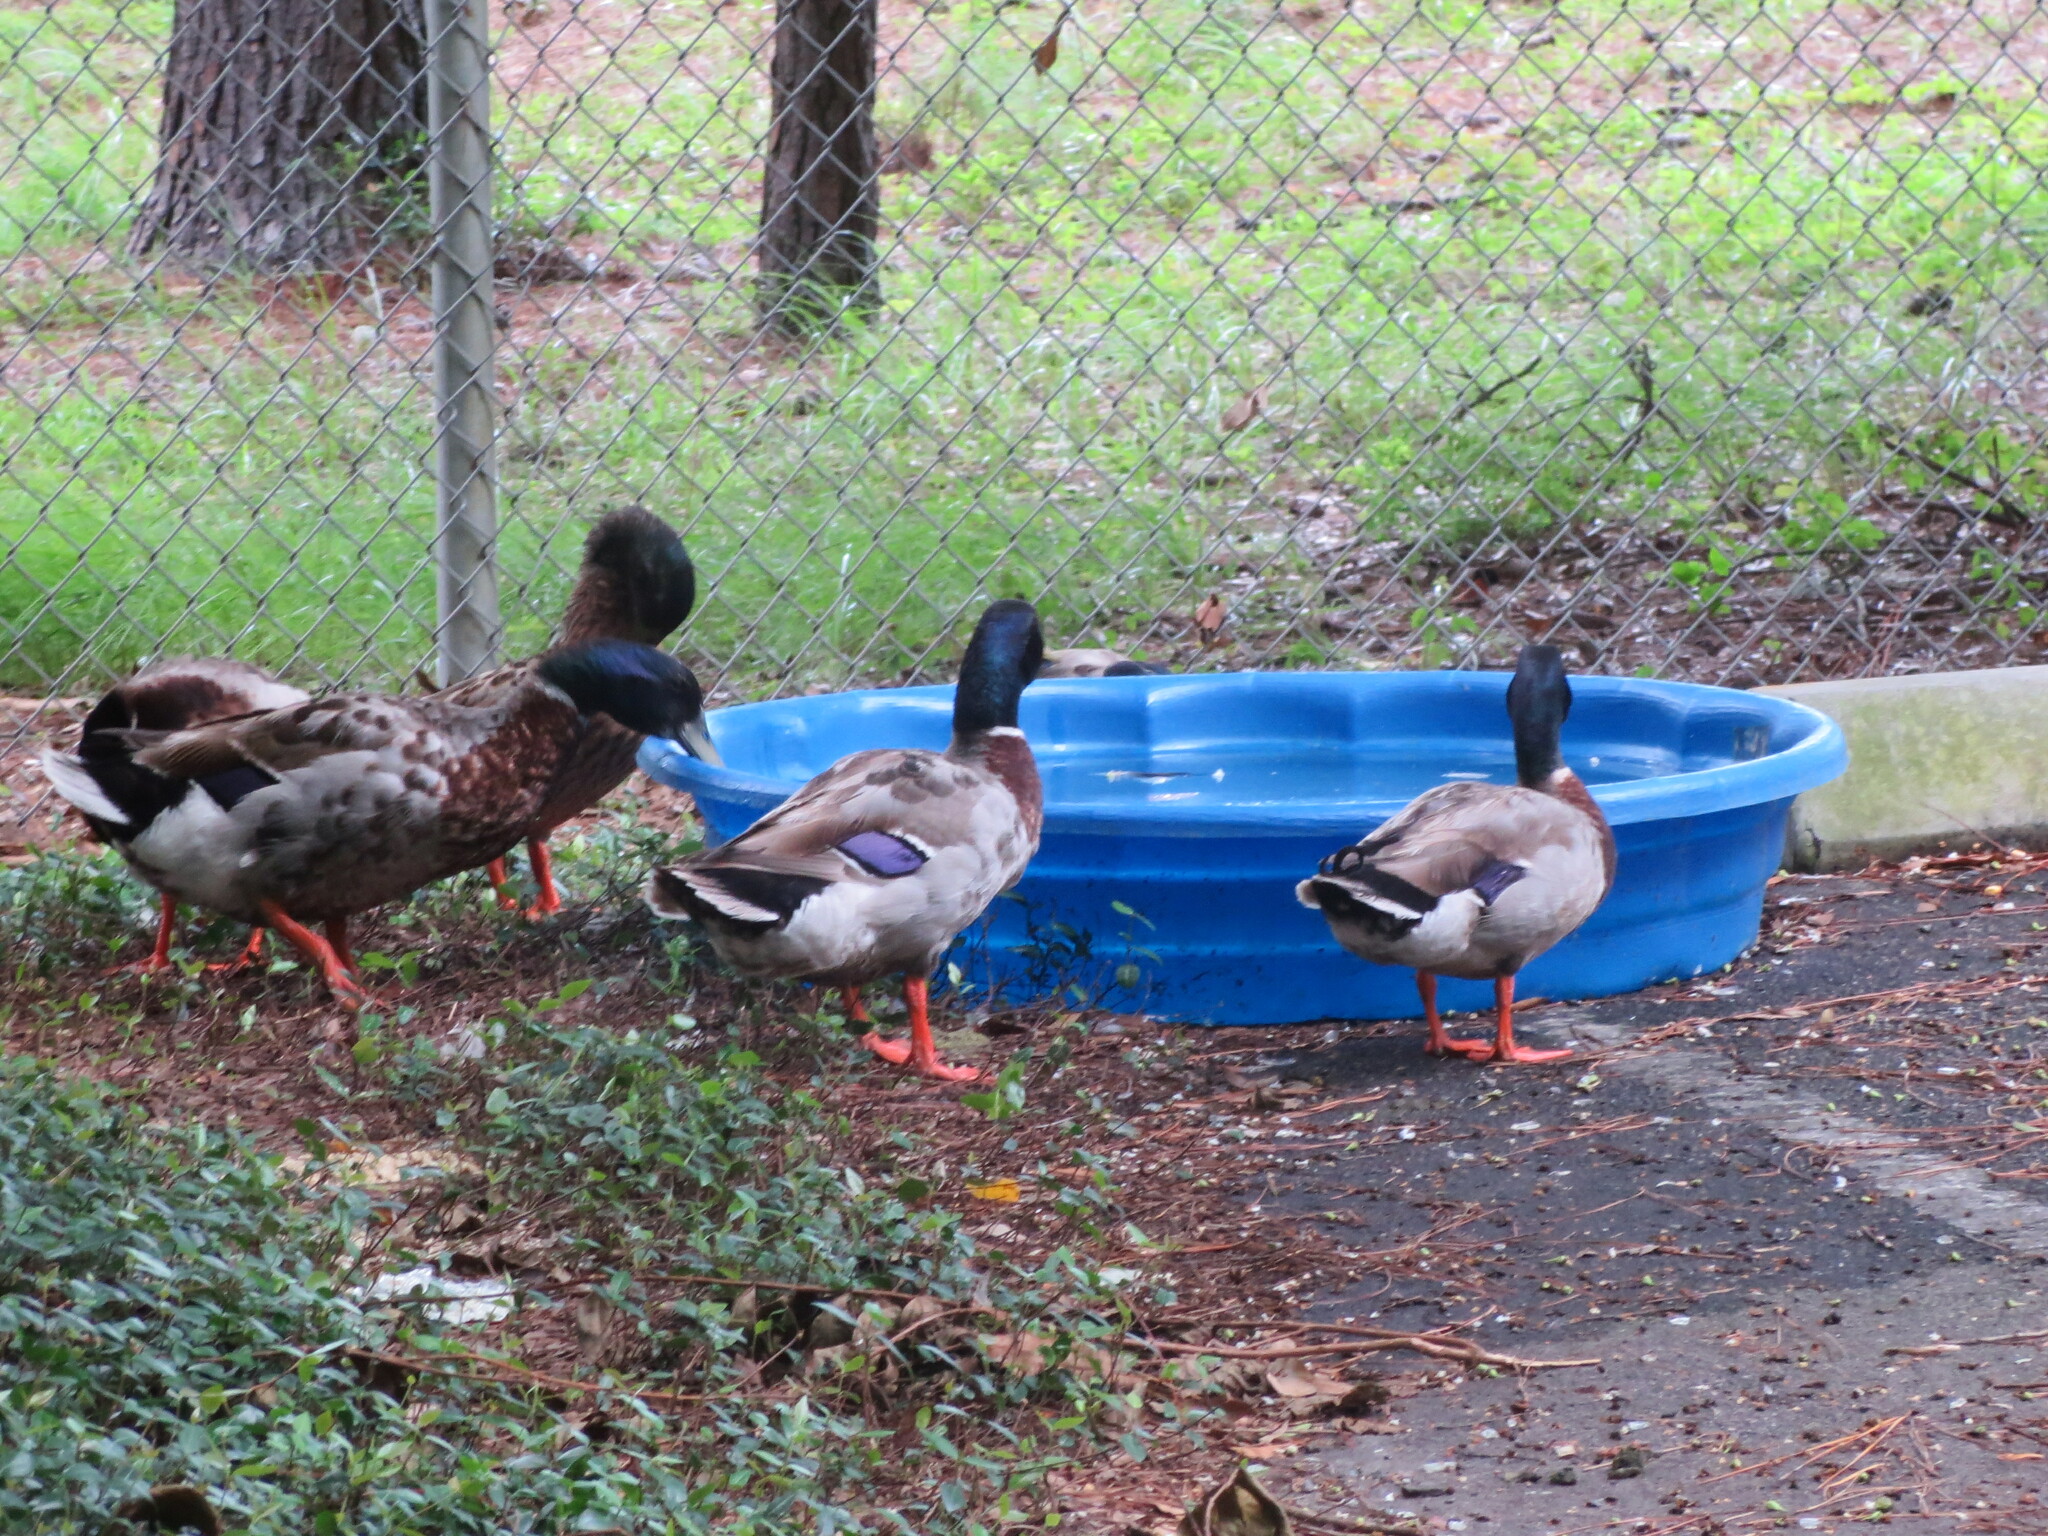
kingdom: Animalia
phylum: Chordata
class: Aves
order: Anseriformes
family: Anatidae
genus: Anas
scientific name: Anas platyrhynchos
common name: Mallard
